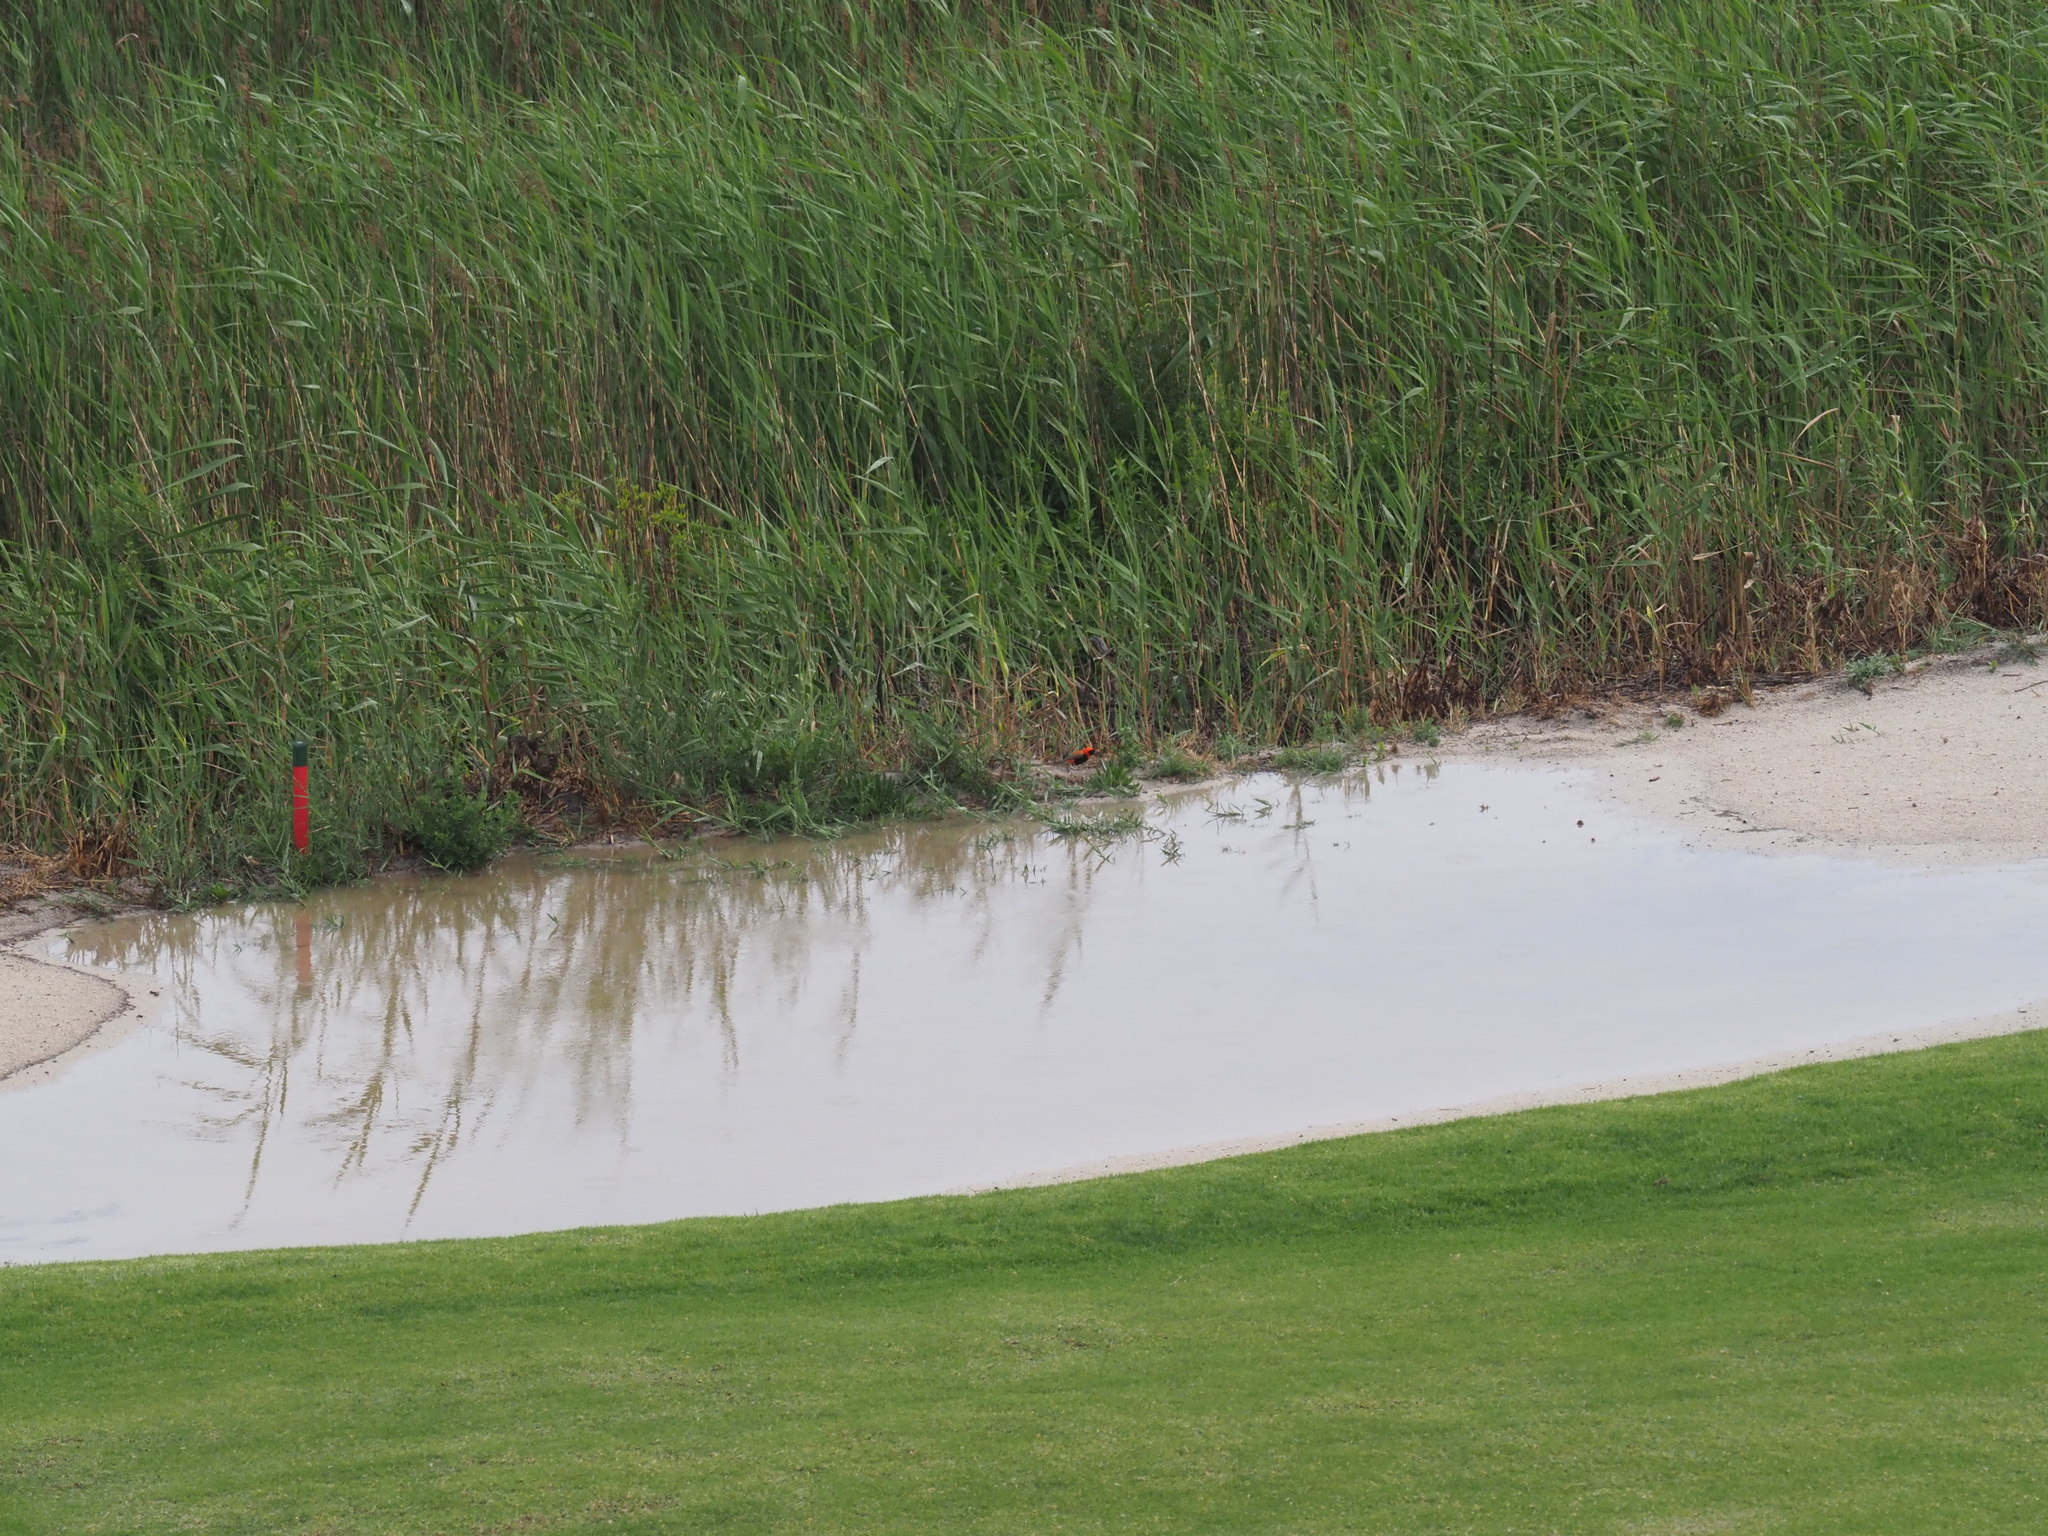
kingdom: Animalia
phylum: Chordata
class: Aves
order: Passeriformes
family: Ploceidae
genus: Euplectes
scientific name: Euplectes orix
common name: Southern red bishop
